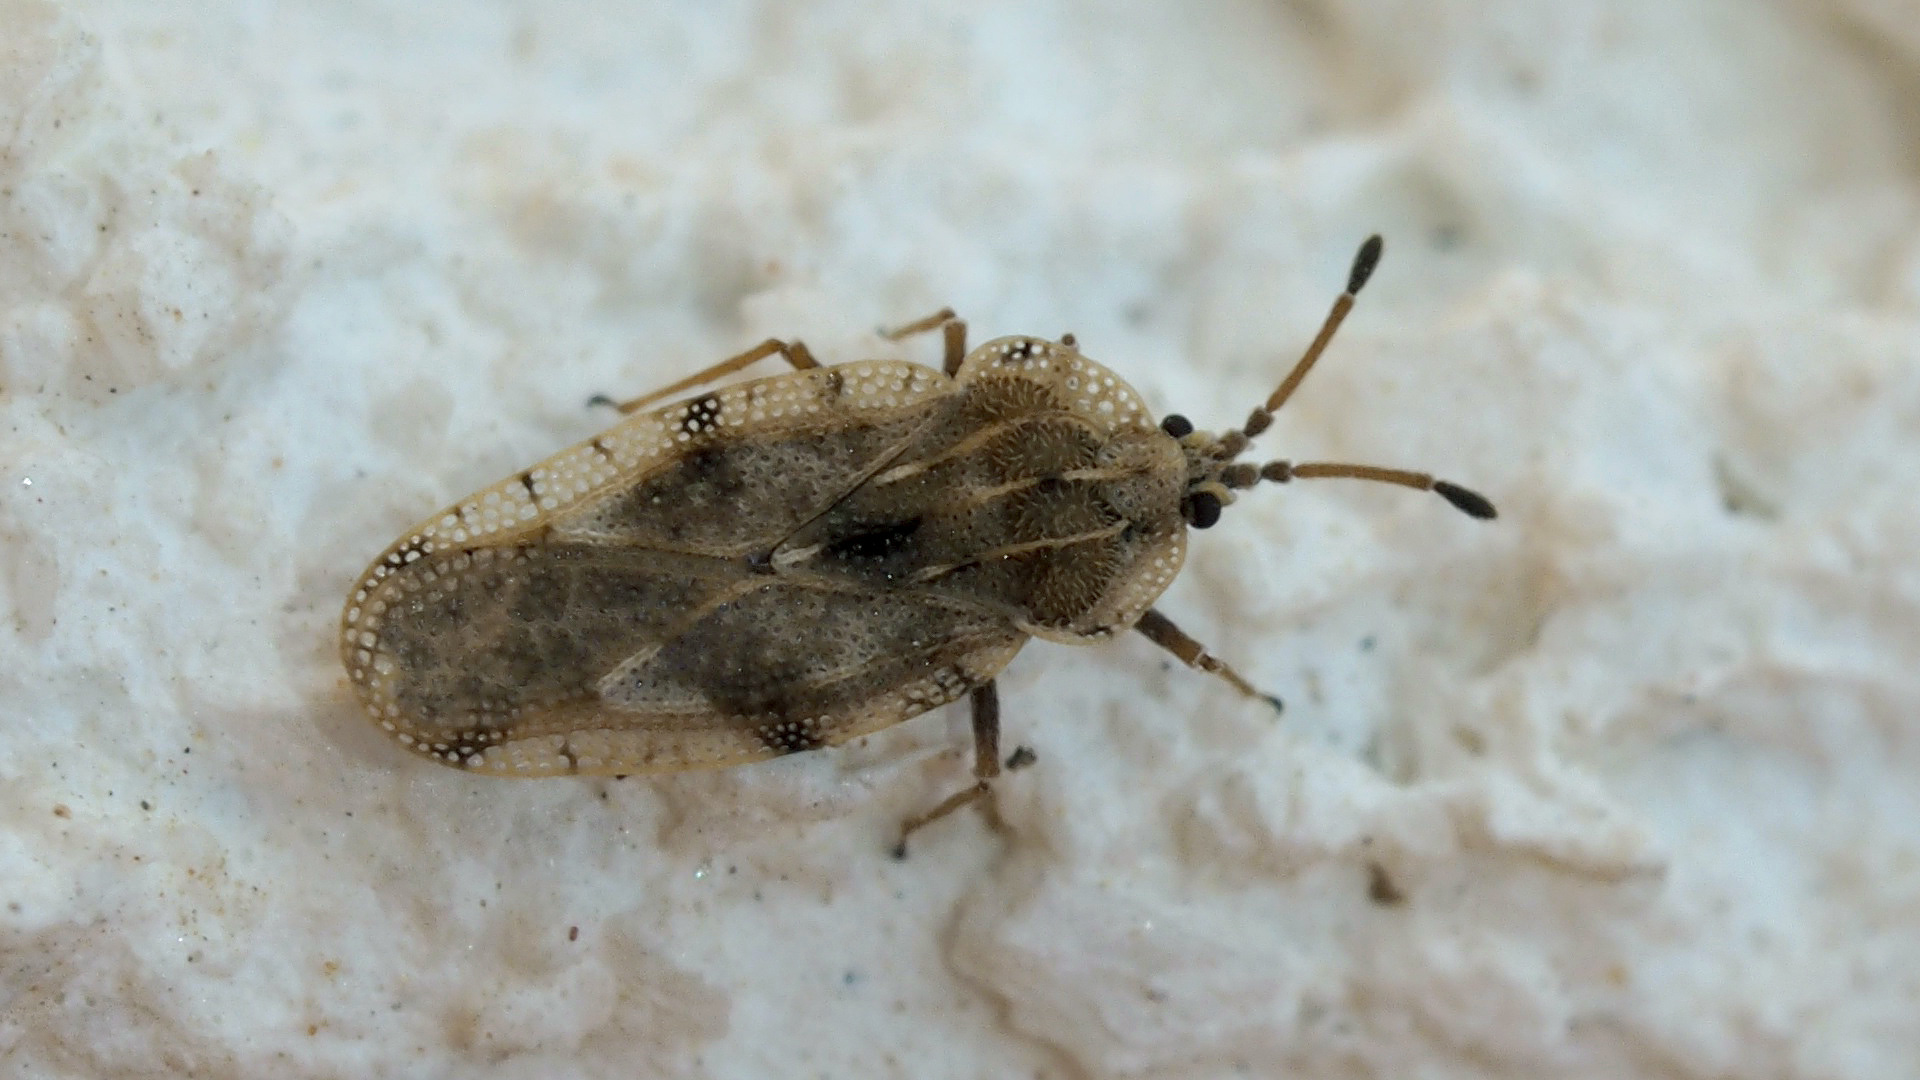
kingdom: Animalia
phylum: Arthropoda
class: Insecta
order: Hemiptera
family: Tingidae
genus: Tingis
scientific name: Tingis cardui
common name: Spear thistle lacebug
